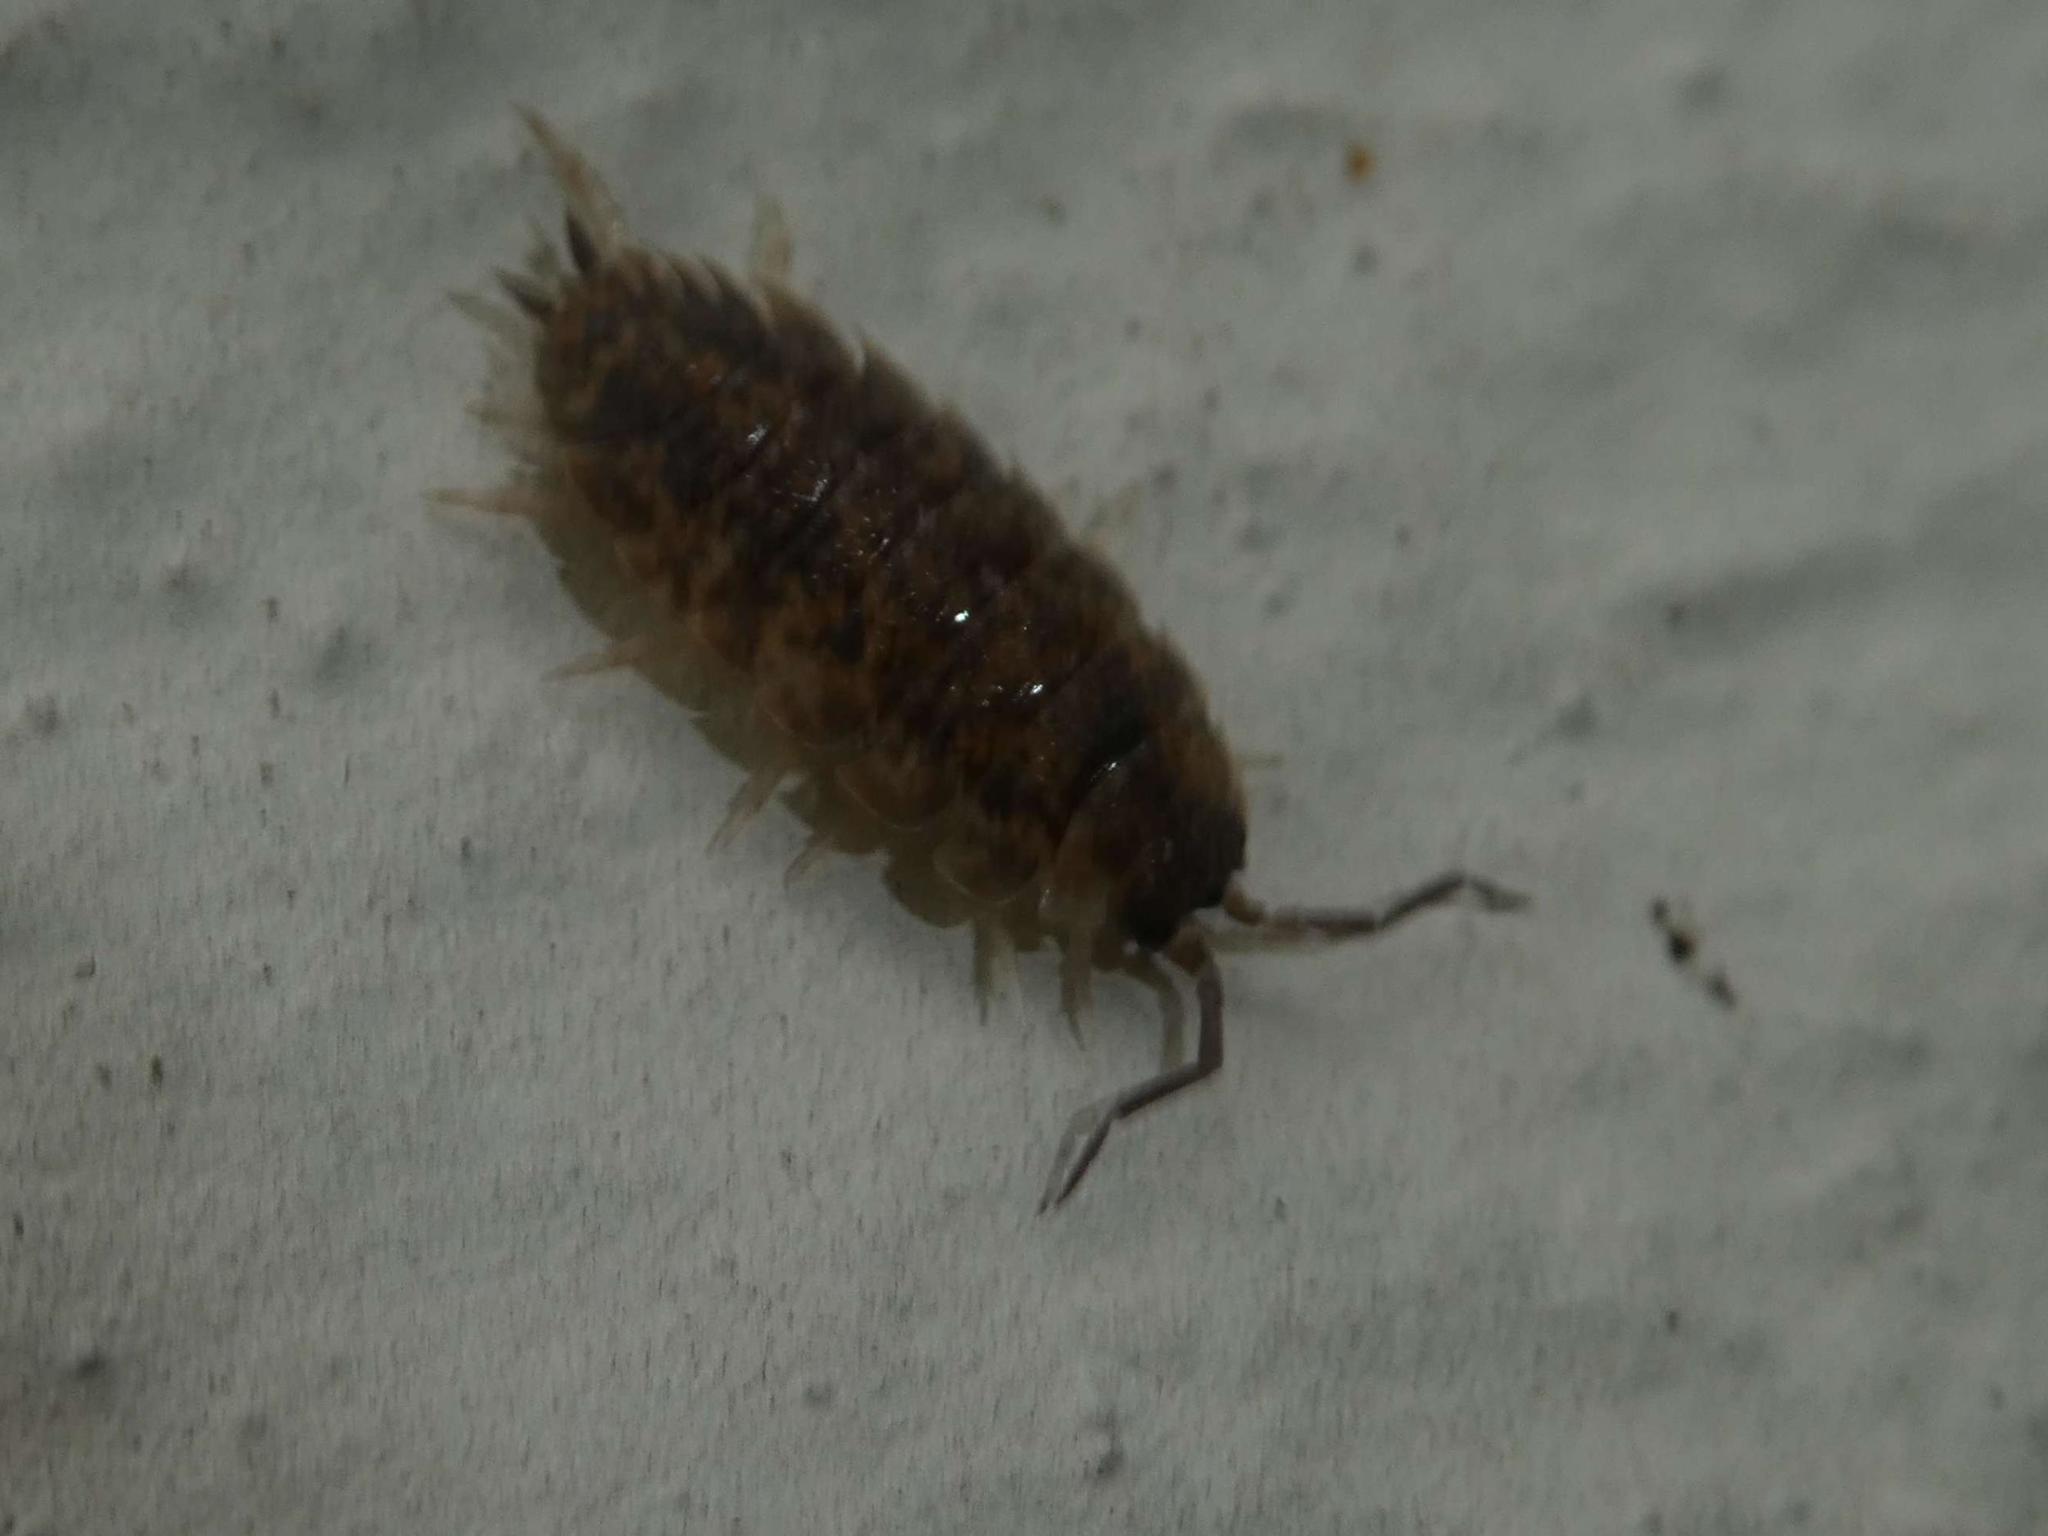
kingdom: Animalia
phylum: Arthropoda
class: Malacostraca
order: Isopoda
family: Porcellionidae
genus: Porcellio
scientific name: Porcellio scaber
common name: Common rough woodlouse
